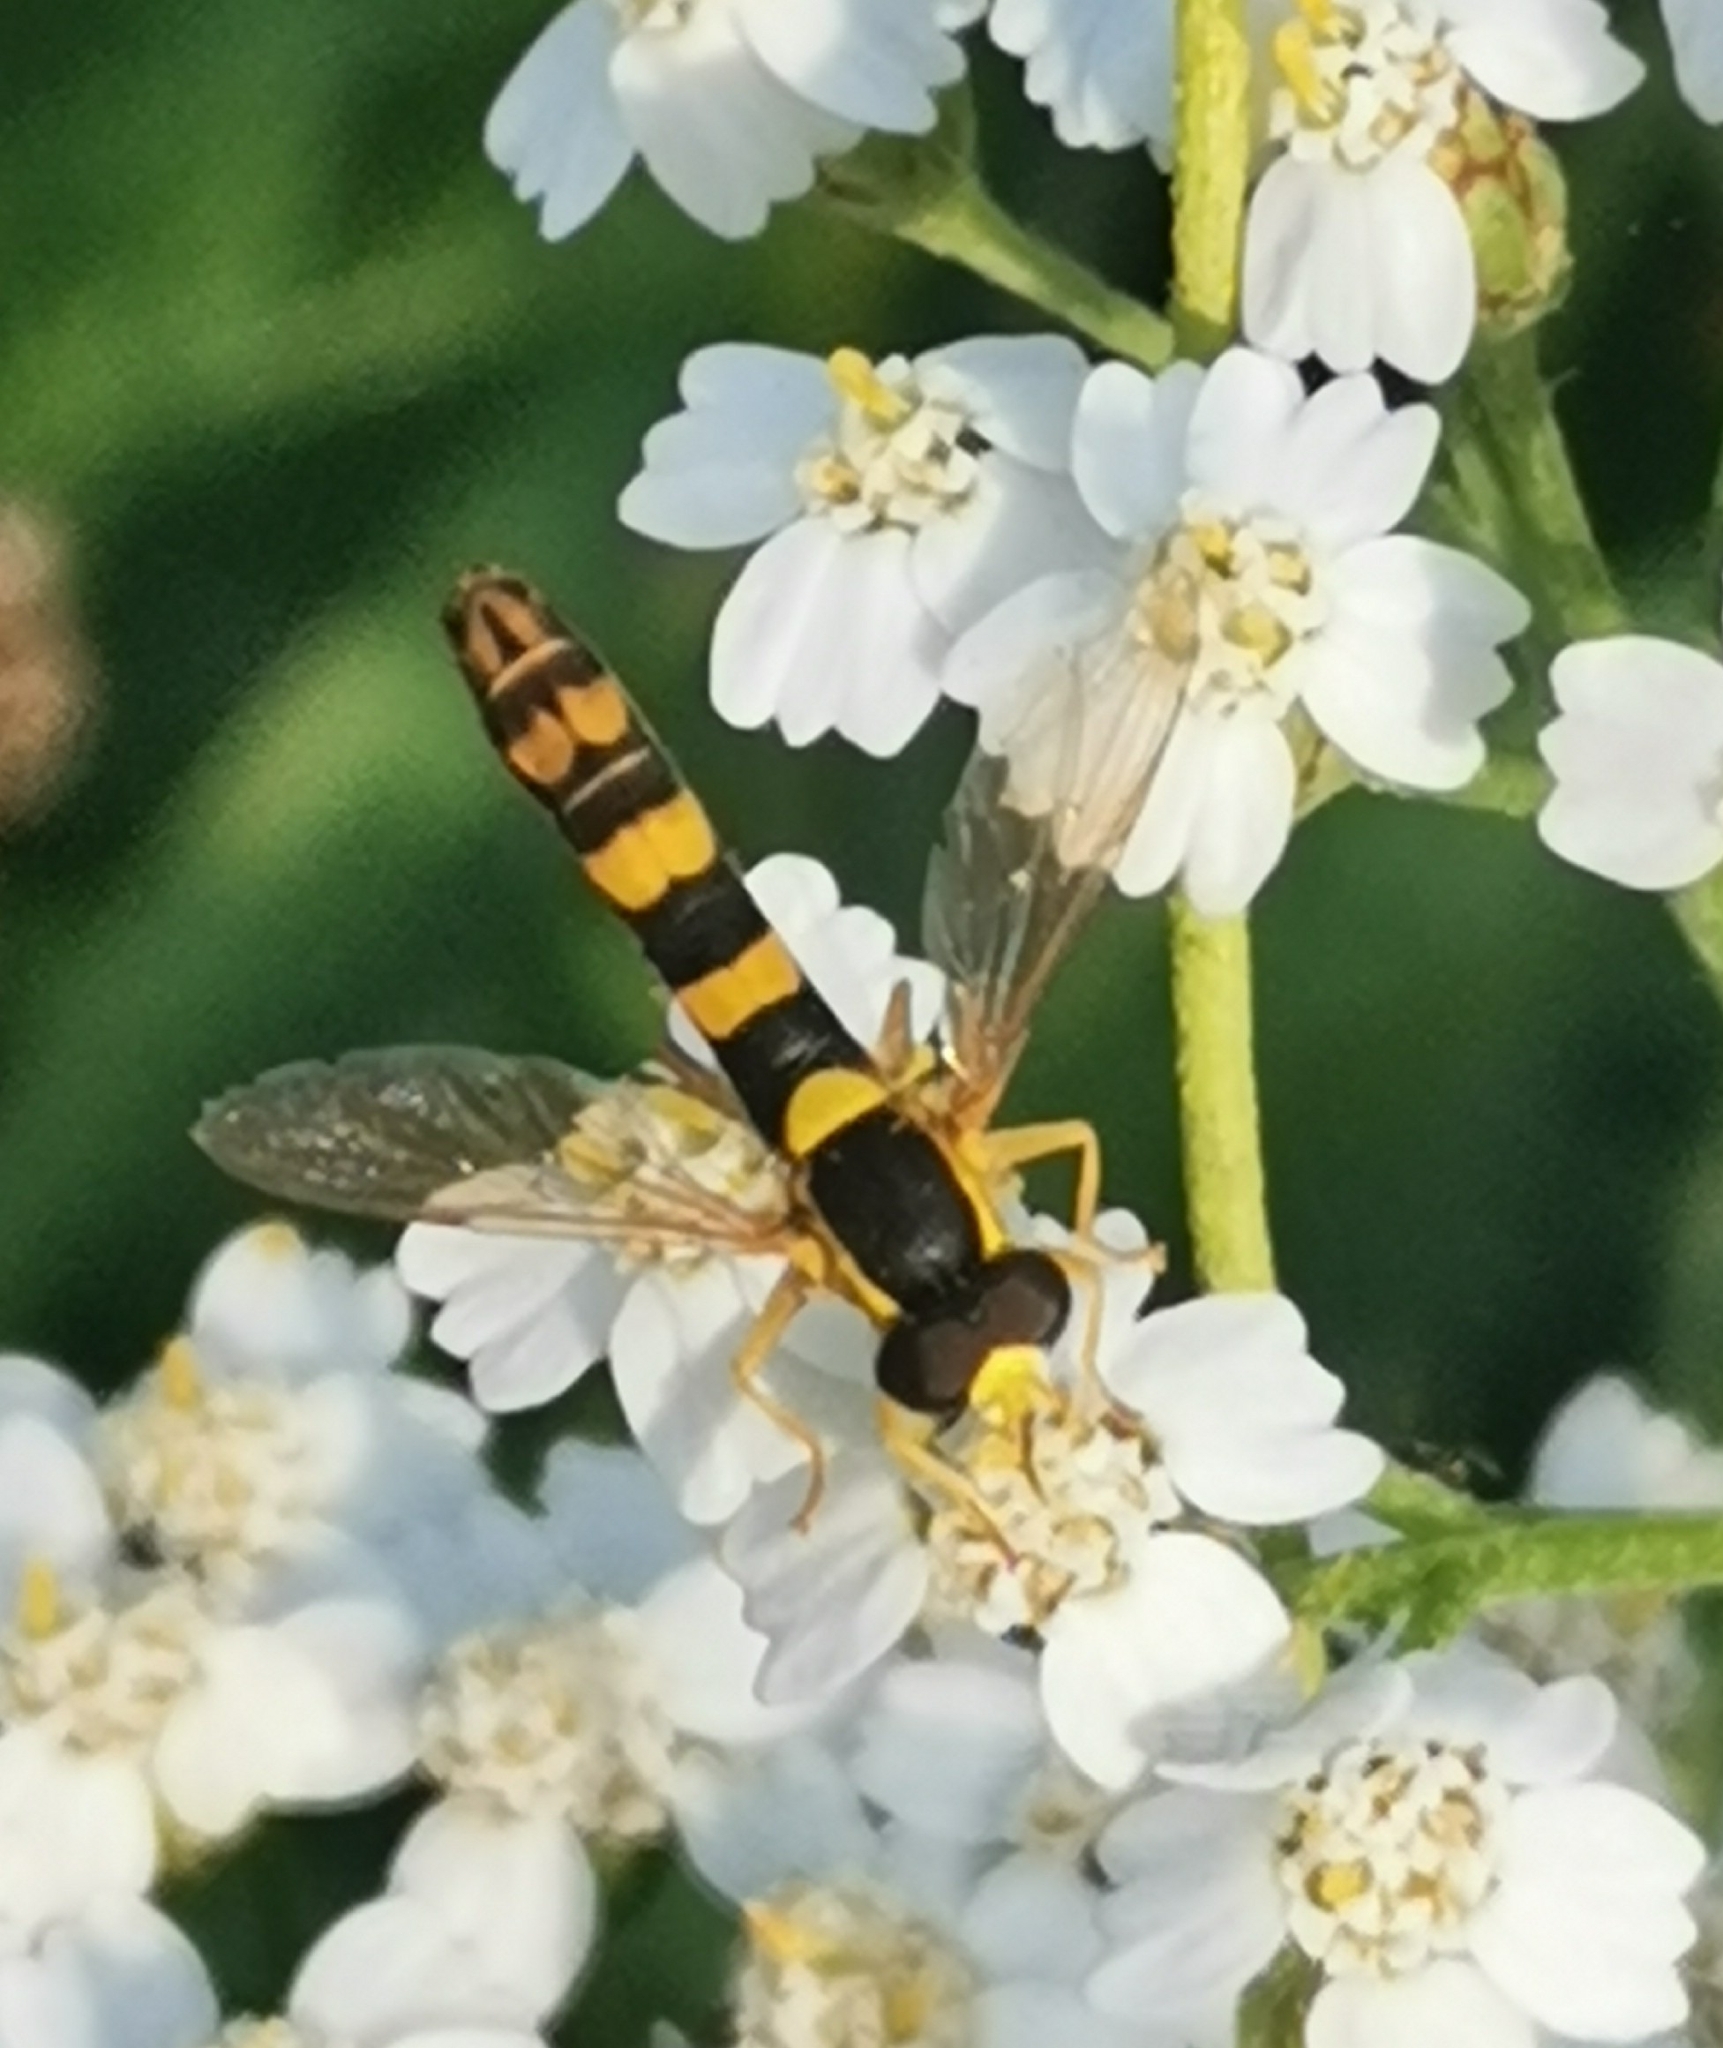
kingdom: Animalia
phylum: Arthropoda
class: Insecta
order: Diptera
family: Syrphidae
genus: Sphaerophoria
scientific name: Sphaerophoria scripta
